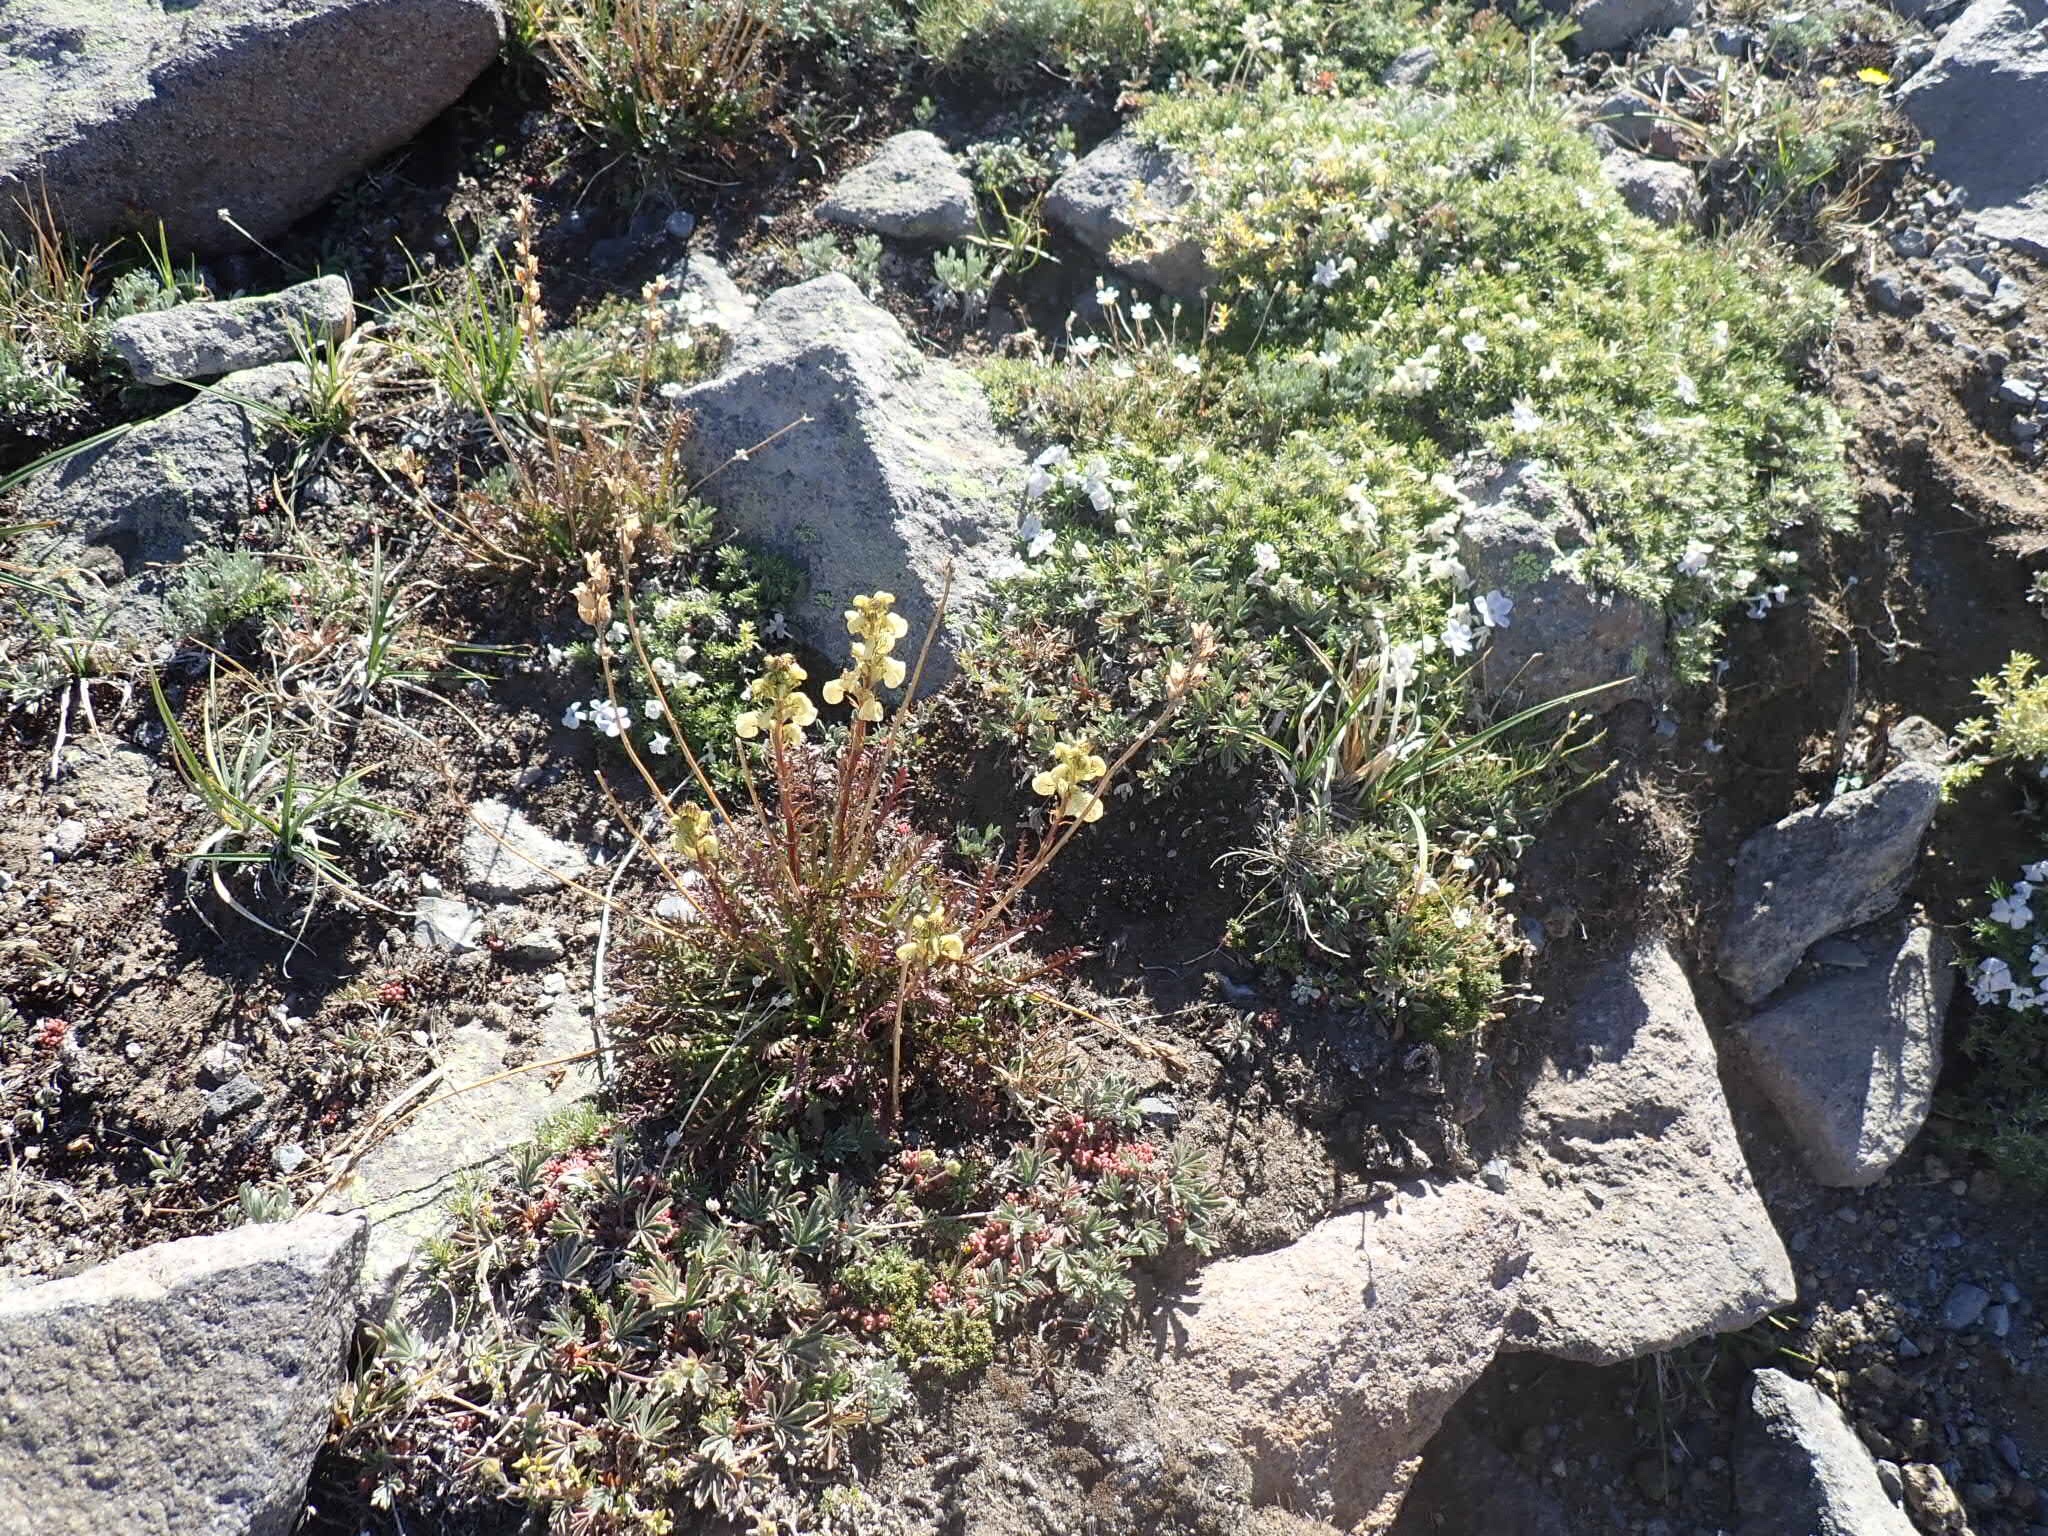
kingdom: Plantae
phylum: Tracheophyta
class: Magnoliopsida
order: Lamiales
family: Orobanchaceae
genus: Pedicularis
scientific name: Pedicularis contorta
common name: Coiled lousewort
